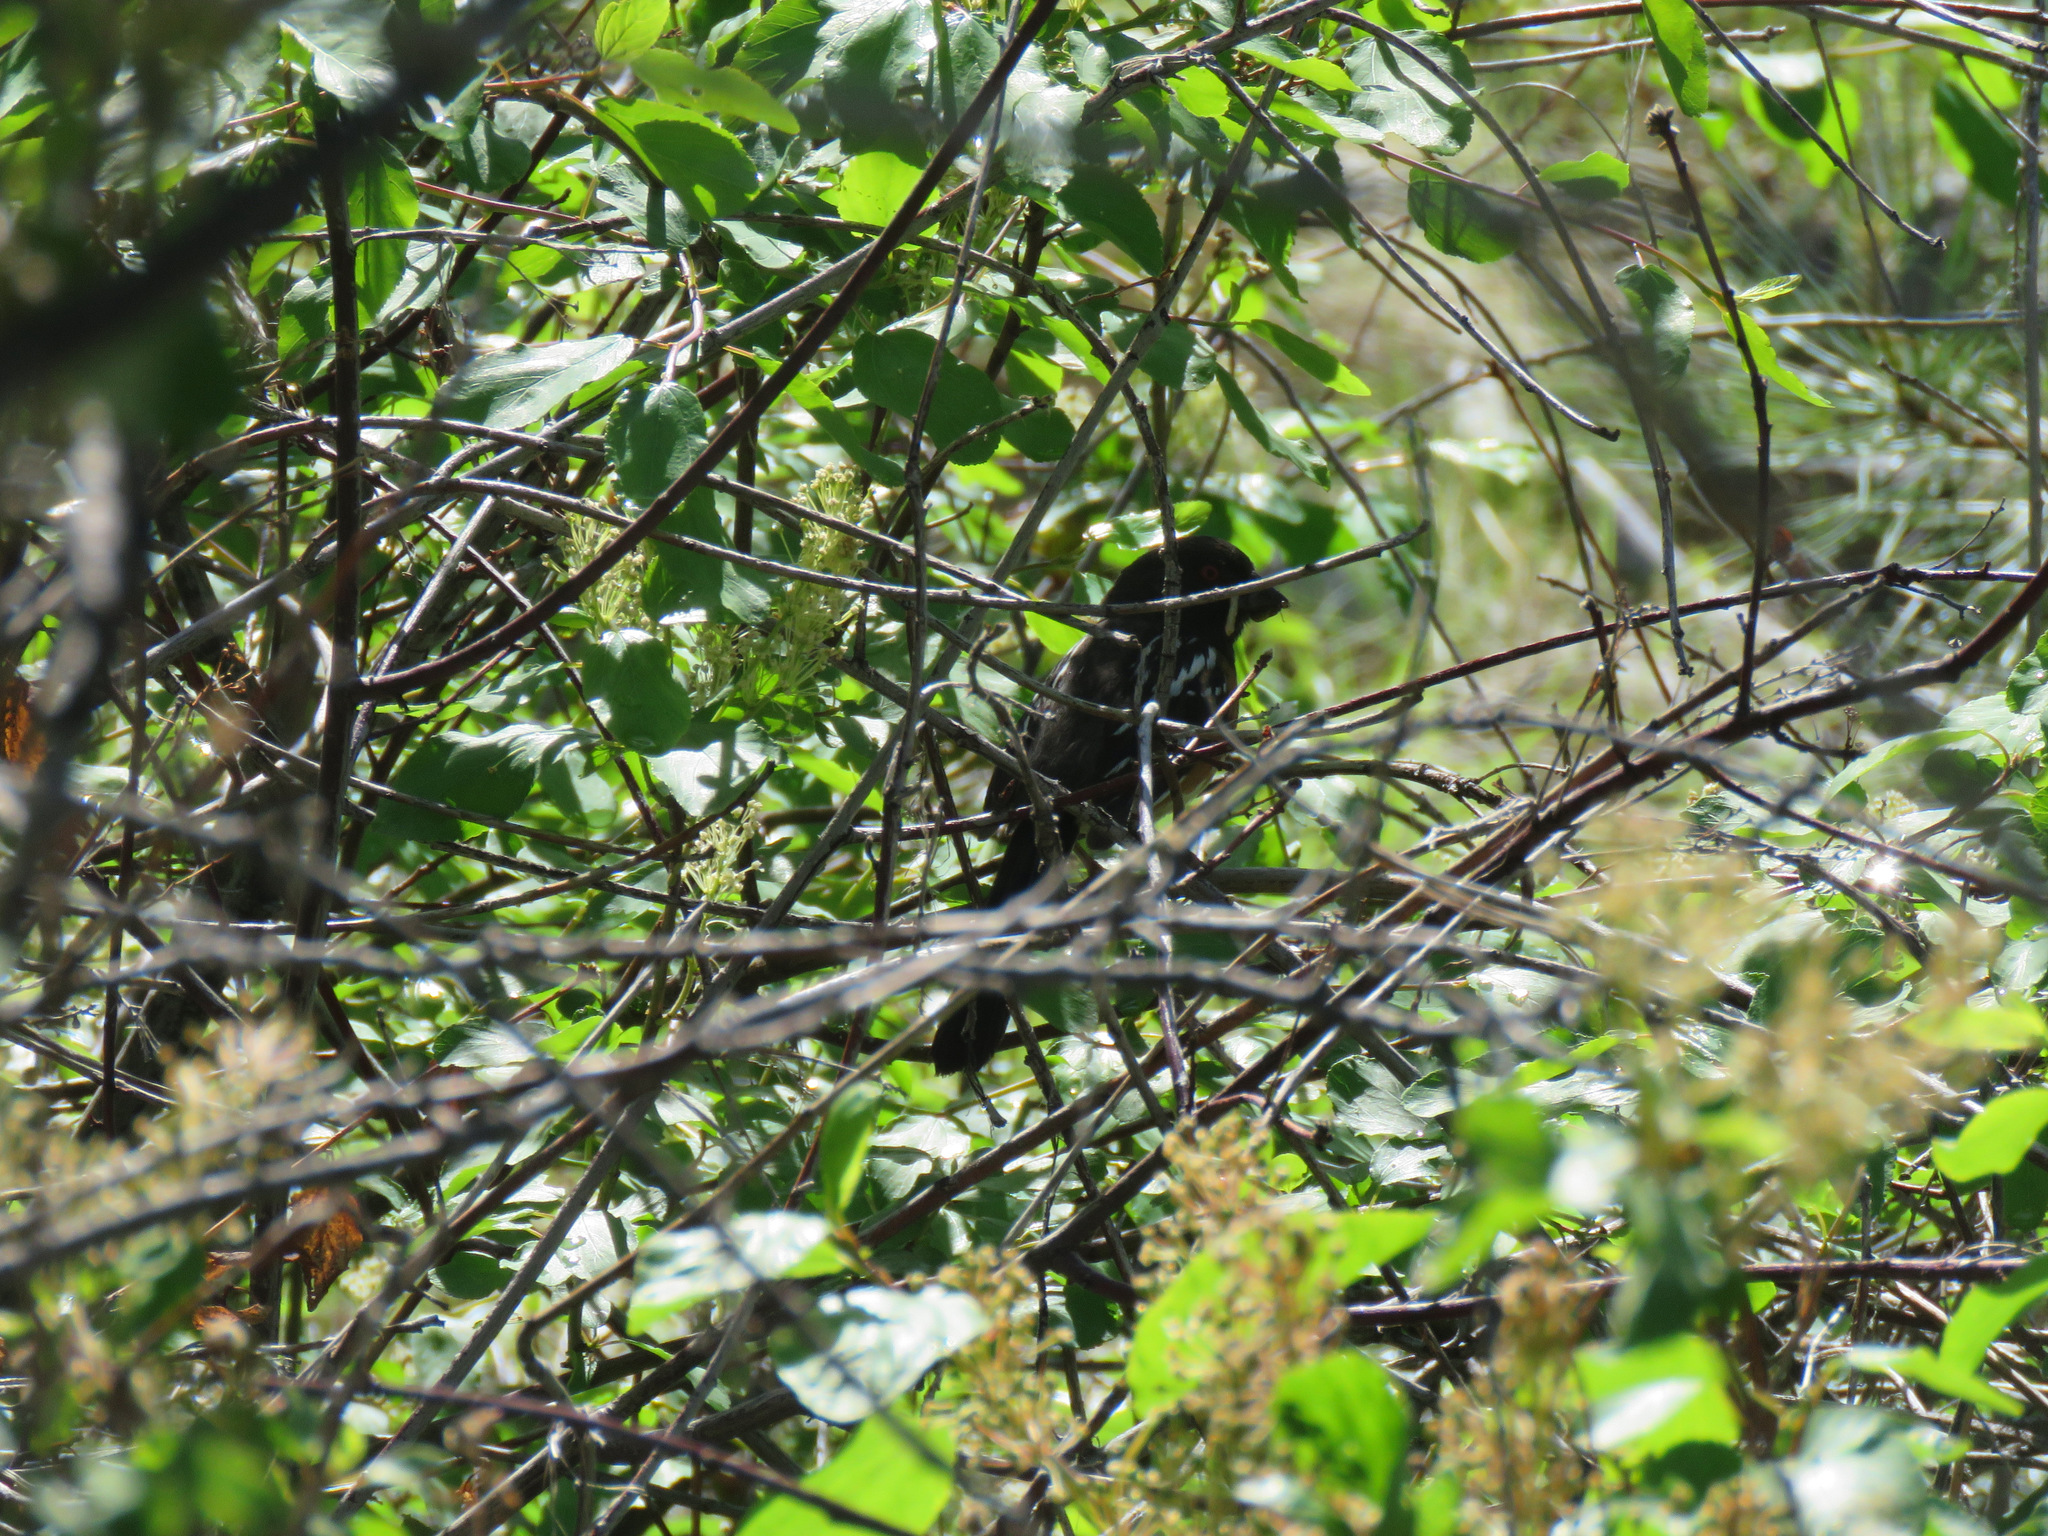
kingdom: Animalia
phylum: Chordata
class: Aves
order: Passeriformes
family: Passerellidae
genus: Pipilo
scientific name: Pipilo maculatus
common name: Spotted towhee
